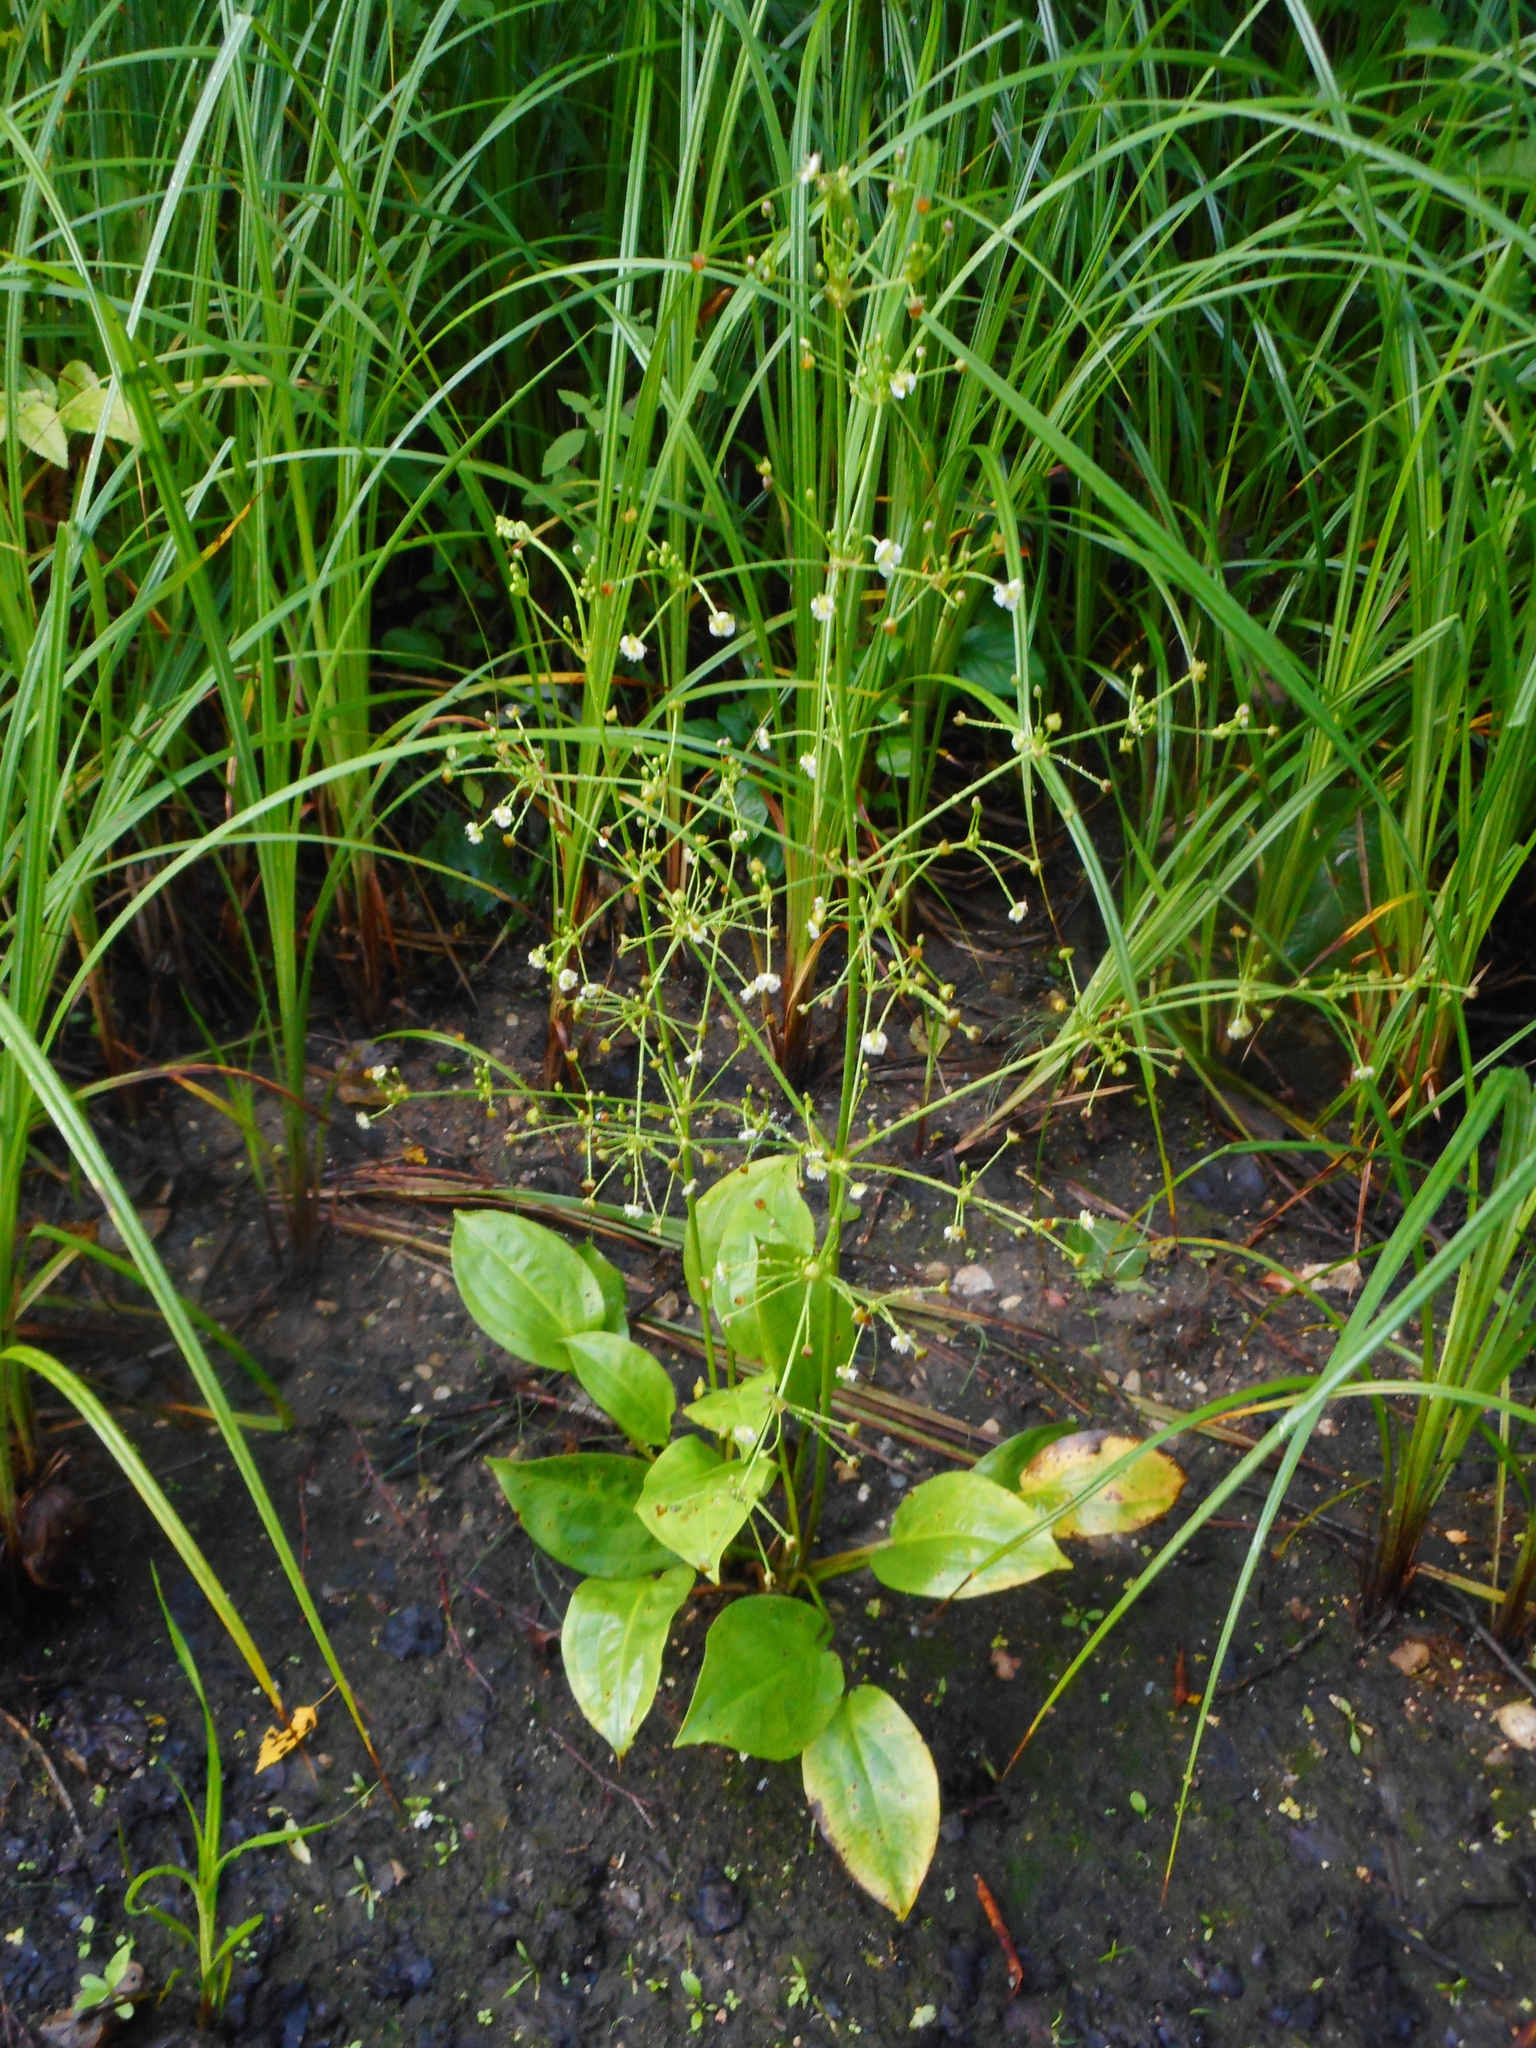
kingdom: Plantae
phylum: Tracheophyta
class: Liliopsida
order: Alismatales
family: Alismataceae
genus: Alisma
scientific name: Alisma plantago-aquatica
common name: Water-plantain
